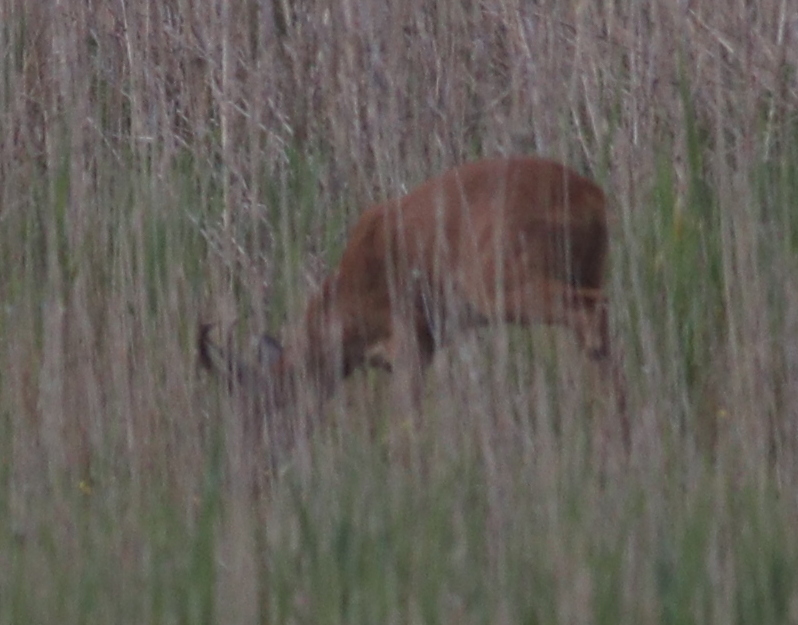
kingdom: Animalia
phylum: Chordata
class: Mammalia
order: Artiodactyla
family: Cervidae
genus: Capreolus
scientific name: Capreolus capreolus
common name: Western roe deer
